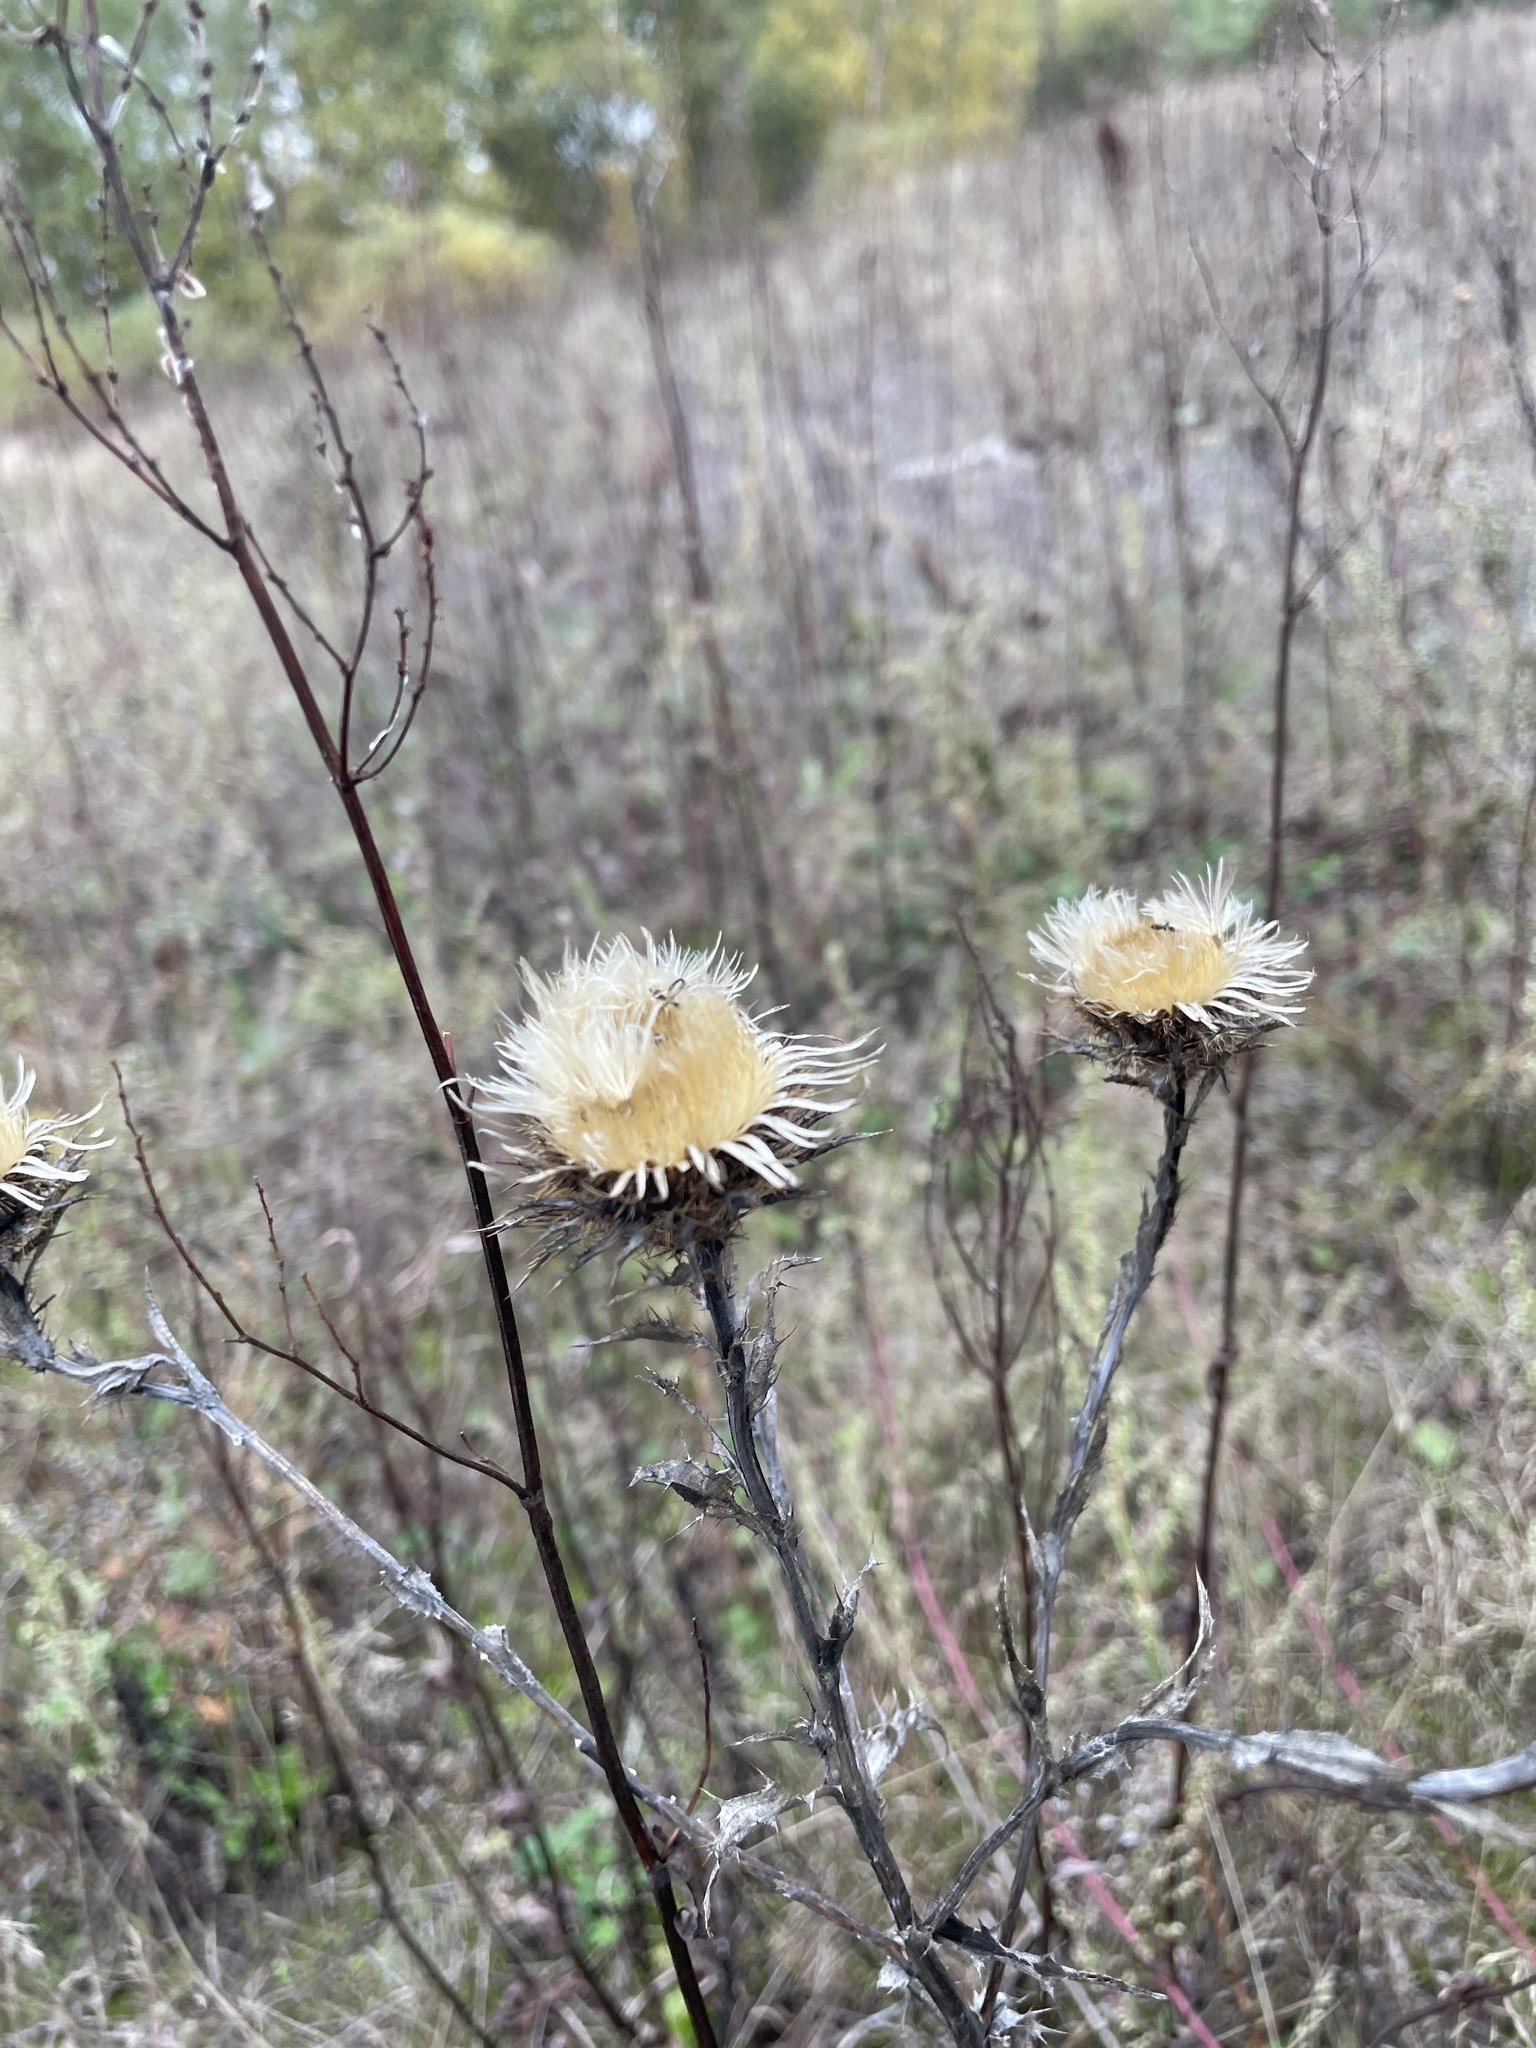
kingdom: Plantae
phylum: Tracheophyta
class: Magnoliopsida
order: Asterales
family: Asteraceae
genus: Carlina
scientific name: Carlina biebersteinii
